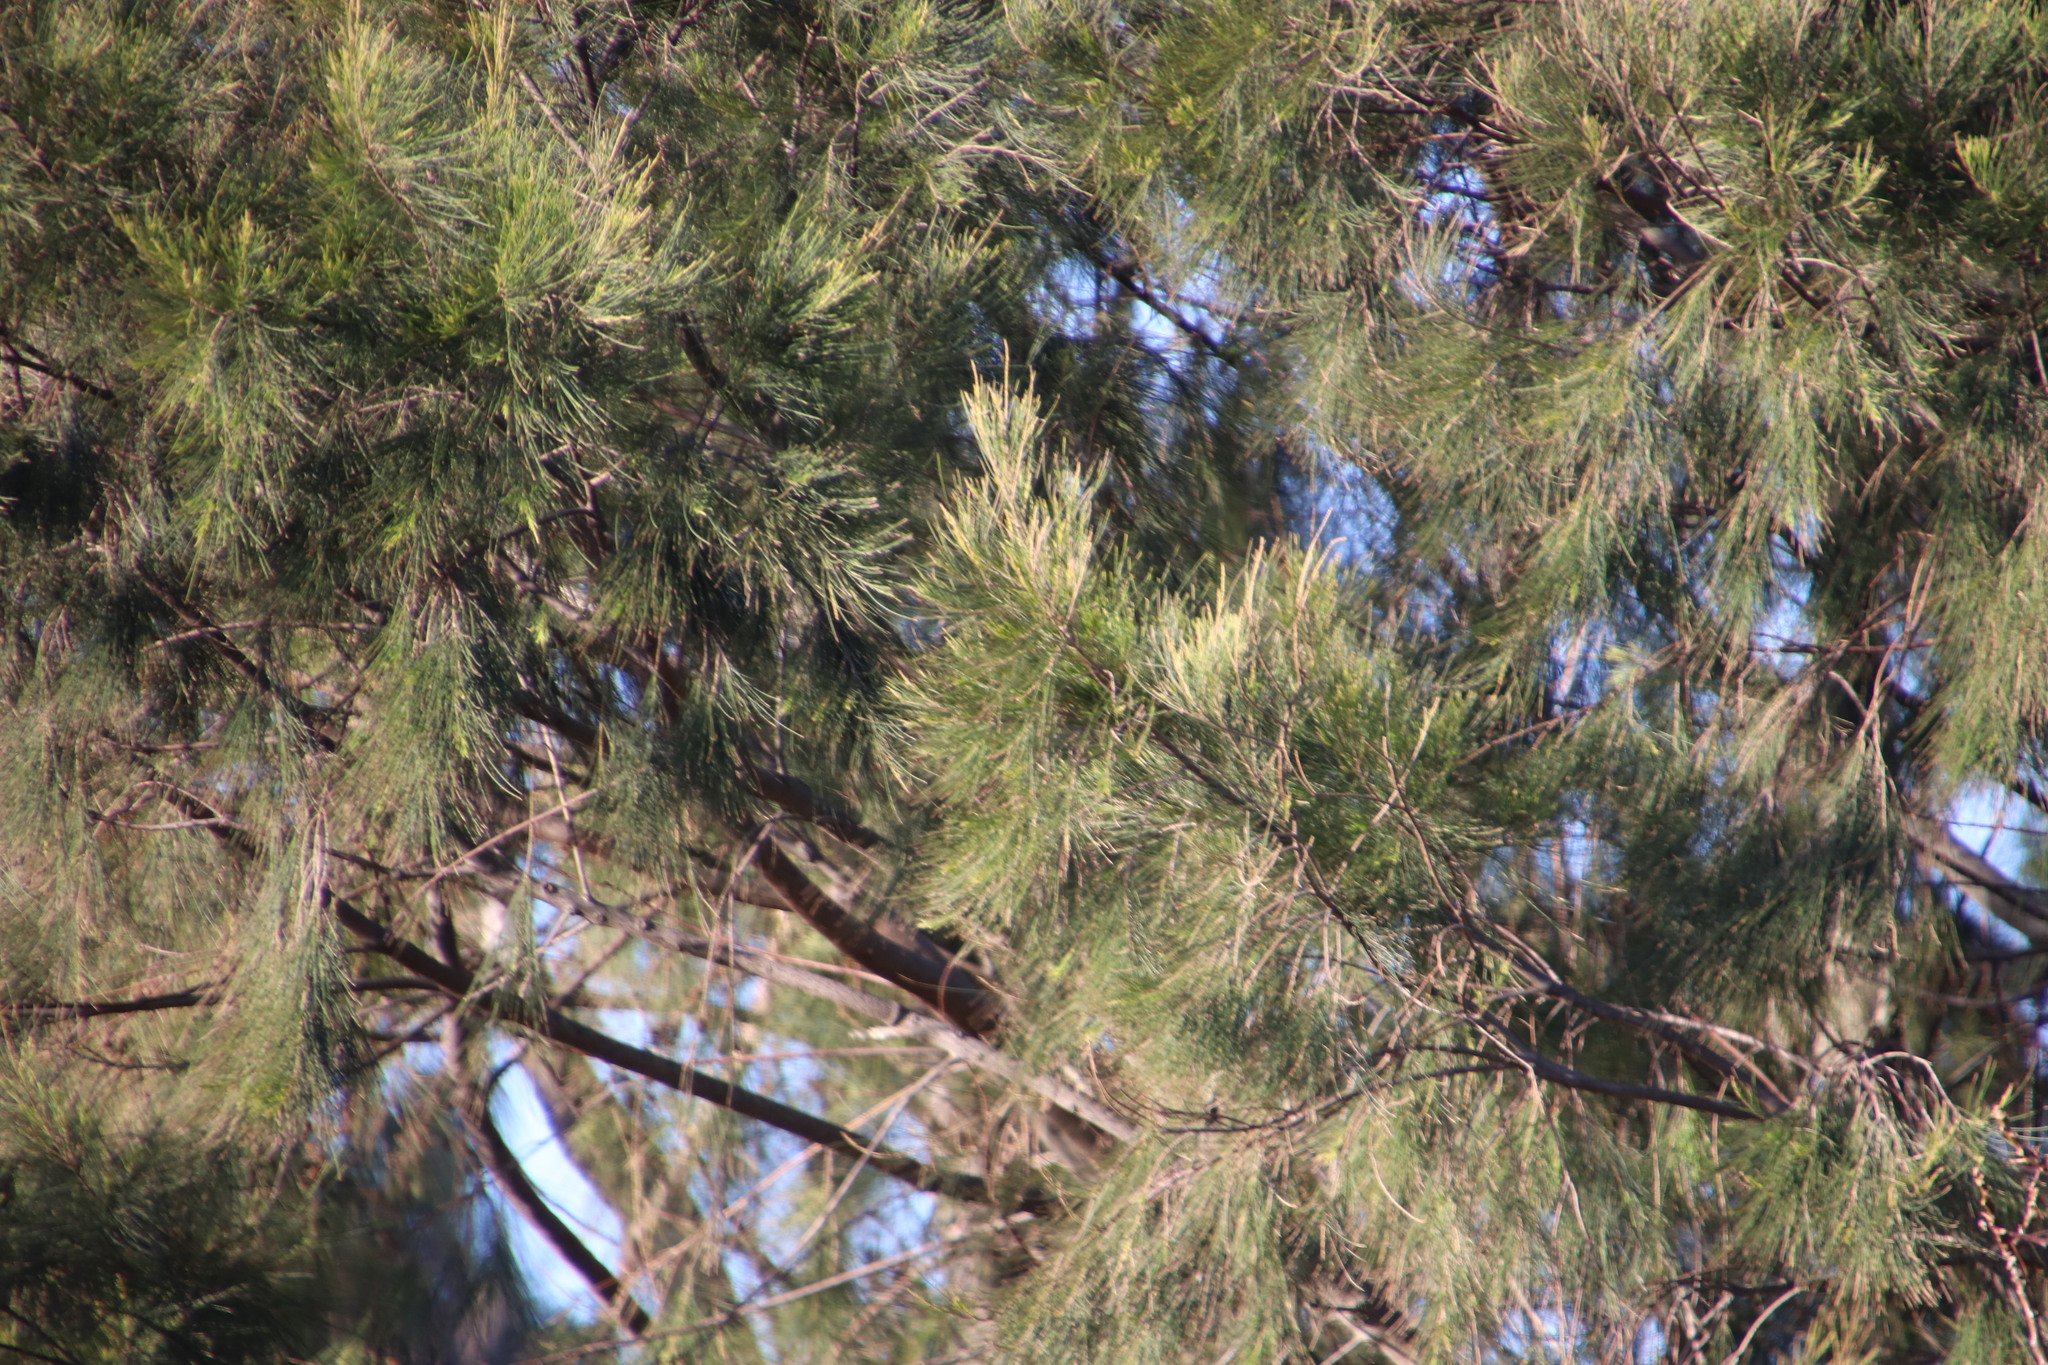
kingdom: Plantae
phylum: Tracheophyta
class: Magnoliopsida
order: Fagales
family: Casuarinaceae
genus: Casuarina
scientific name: Casuarina cunninghamiana
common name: River sheoak
